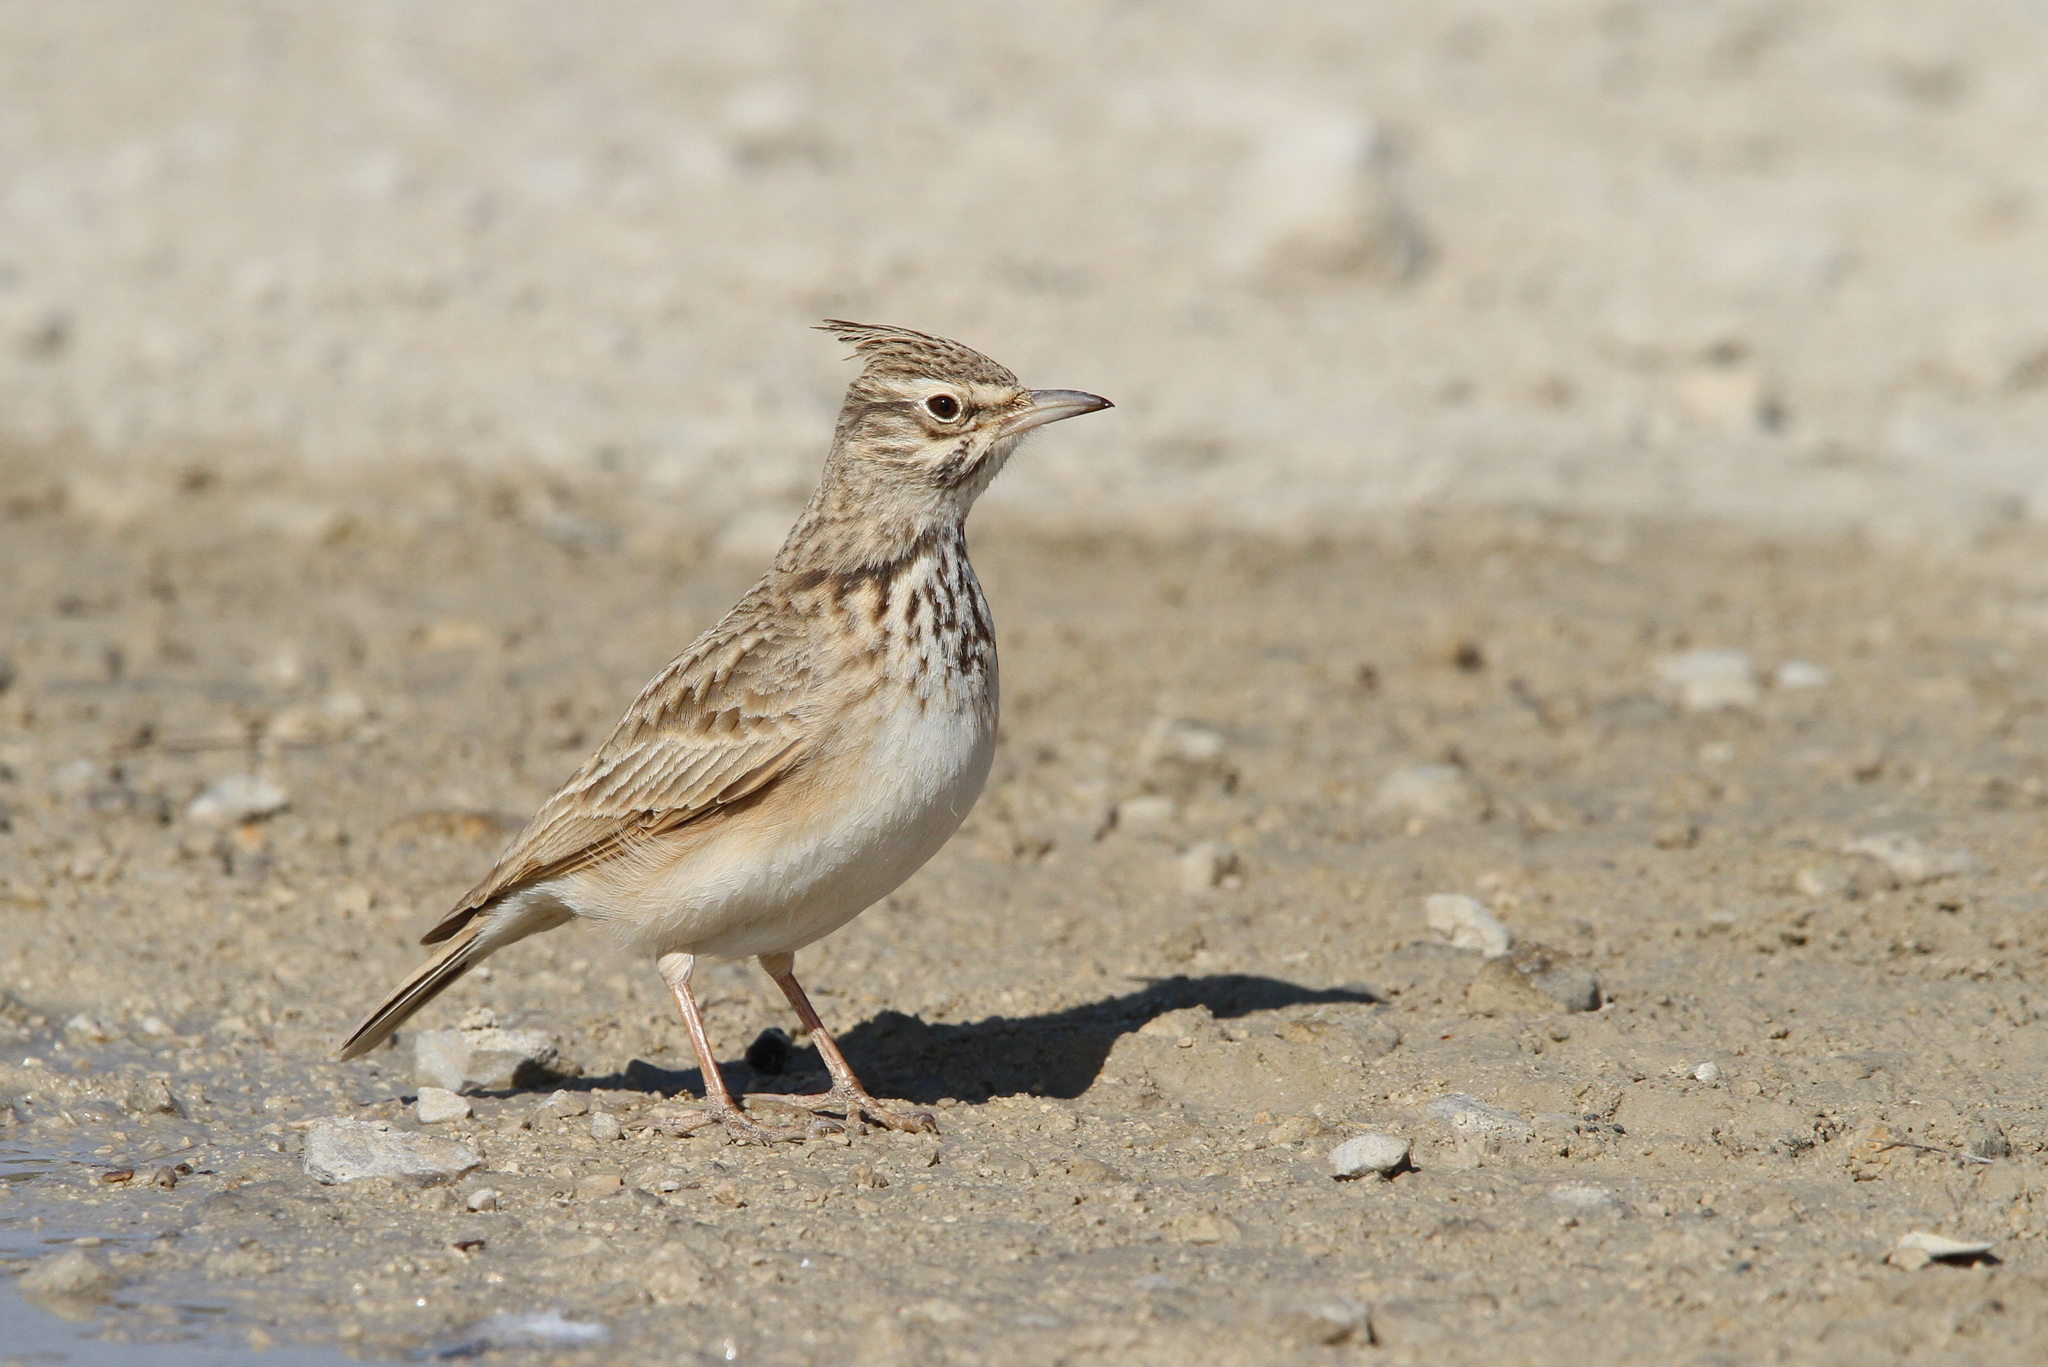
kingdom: Animalia
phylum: Chordata
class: Aves
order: Passeriformes
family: Alaudidae
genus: Galerida
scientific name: Galerida cristata
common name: Crested lark
